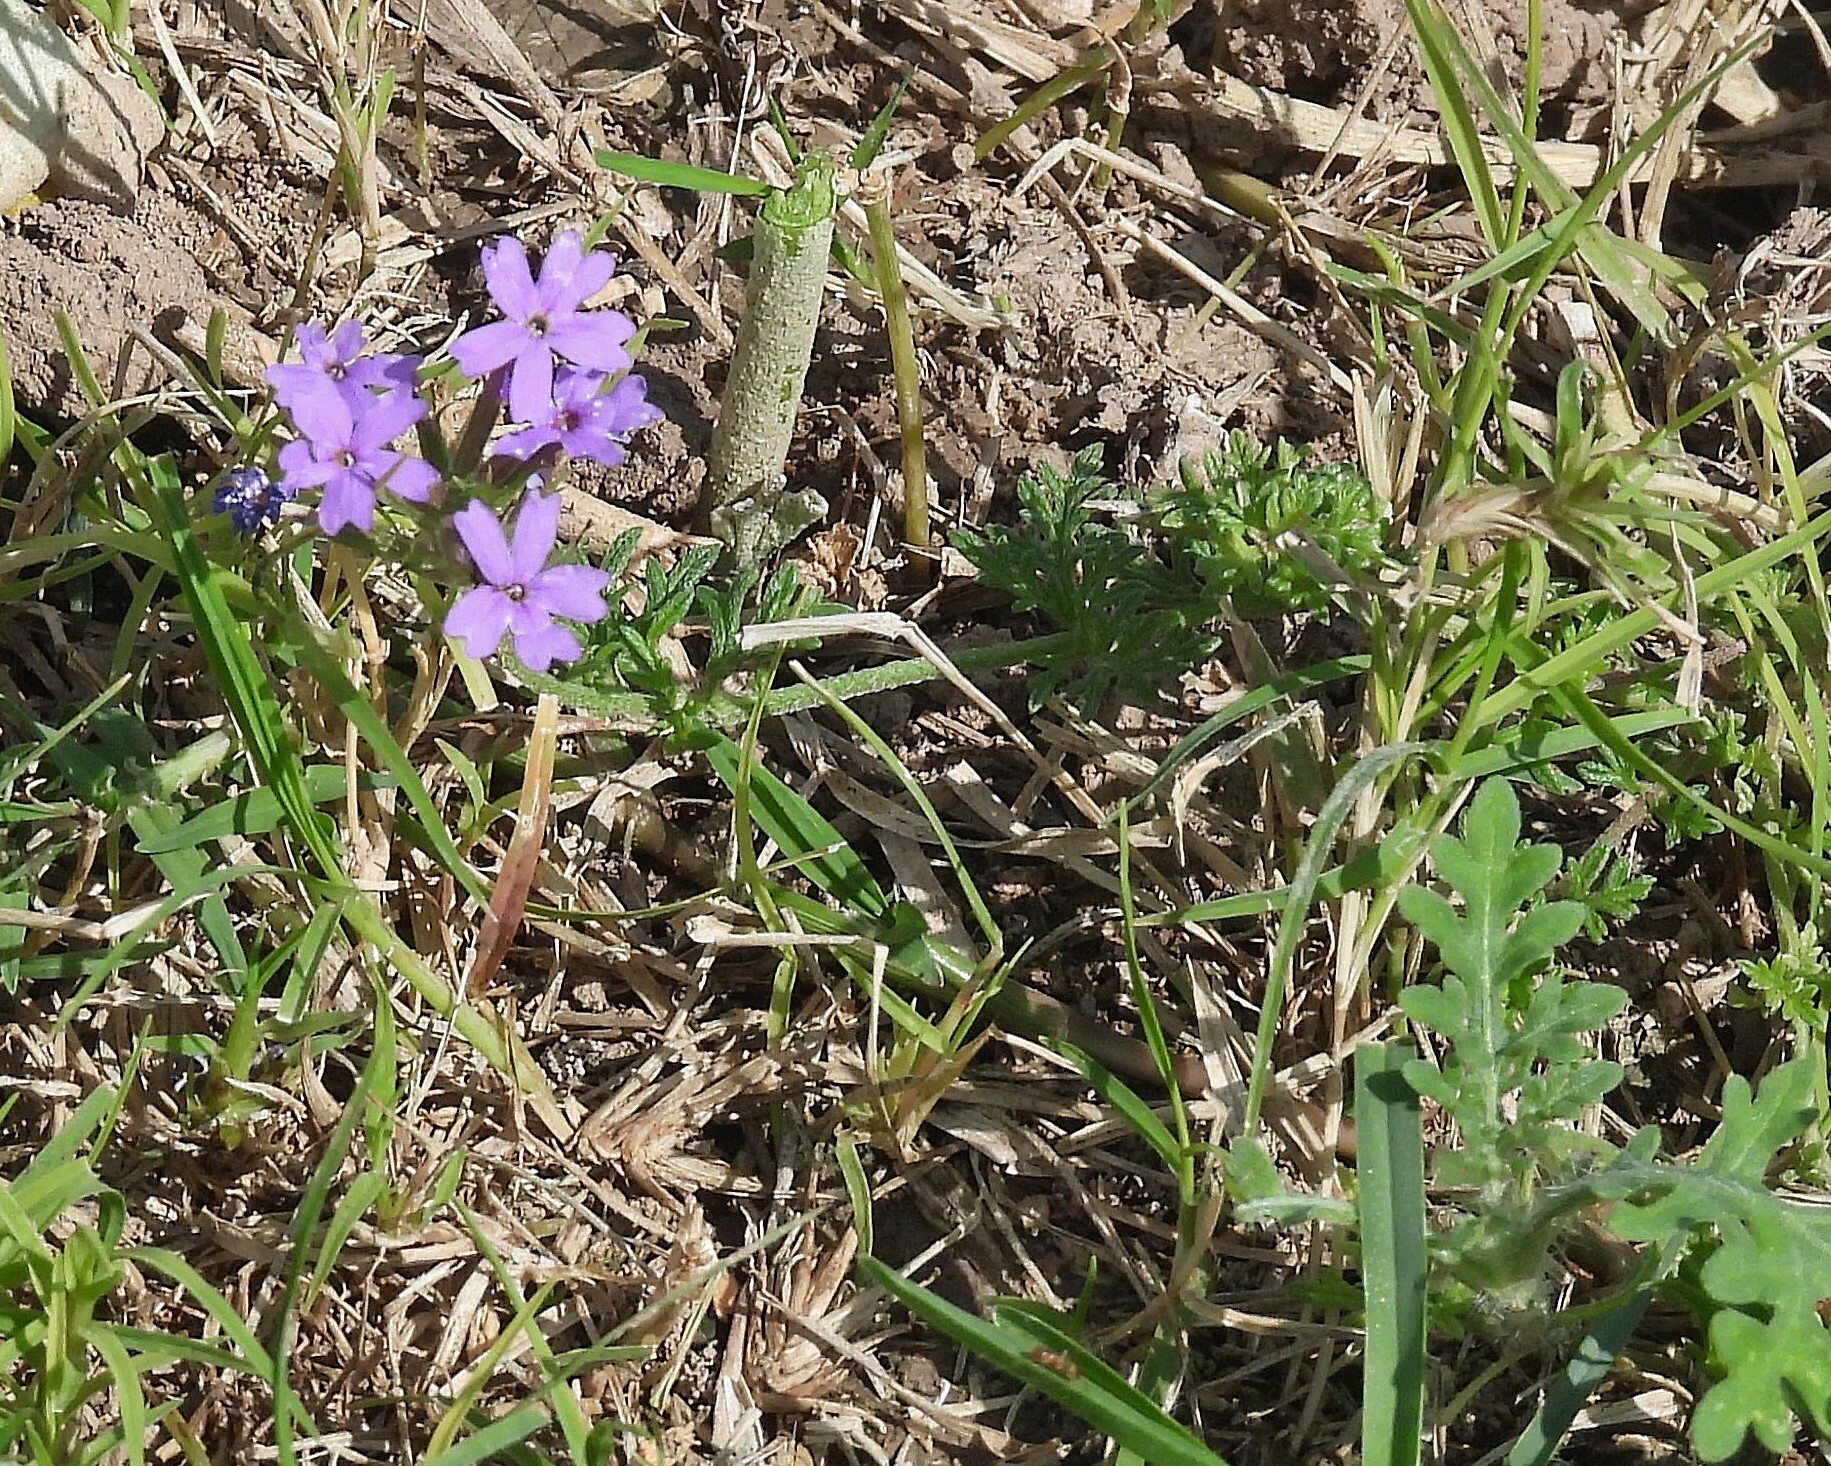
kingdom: Plantae
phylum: Tracheophyta
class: Magnoliopsida
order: Lamiales
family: Verbenaceae
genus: Verbena
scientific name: Verbena tenera
